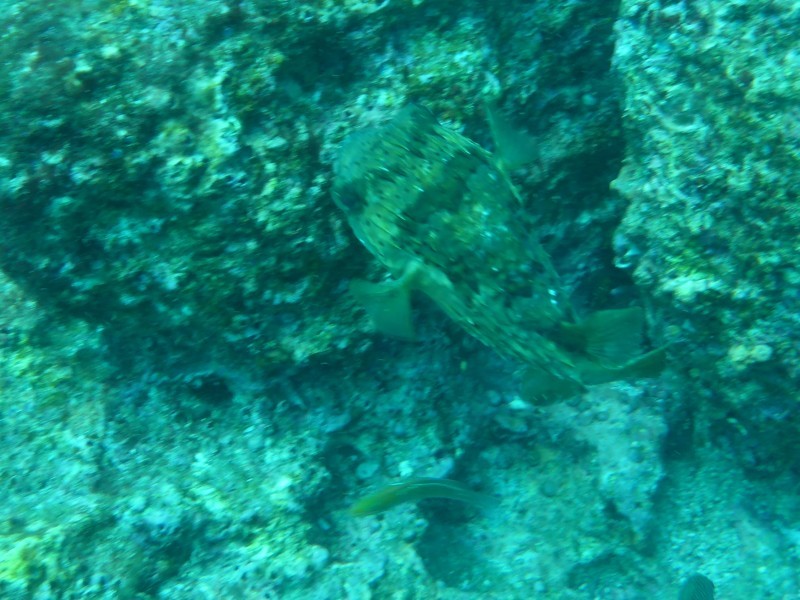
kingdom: Animalia
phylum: Chordata
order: Tetraodontiformes
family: Diodontidae
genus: Diodon
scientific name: Diodon holocanthus
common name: Balloonfish
